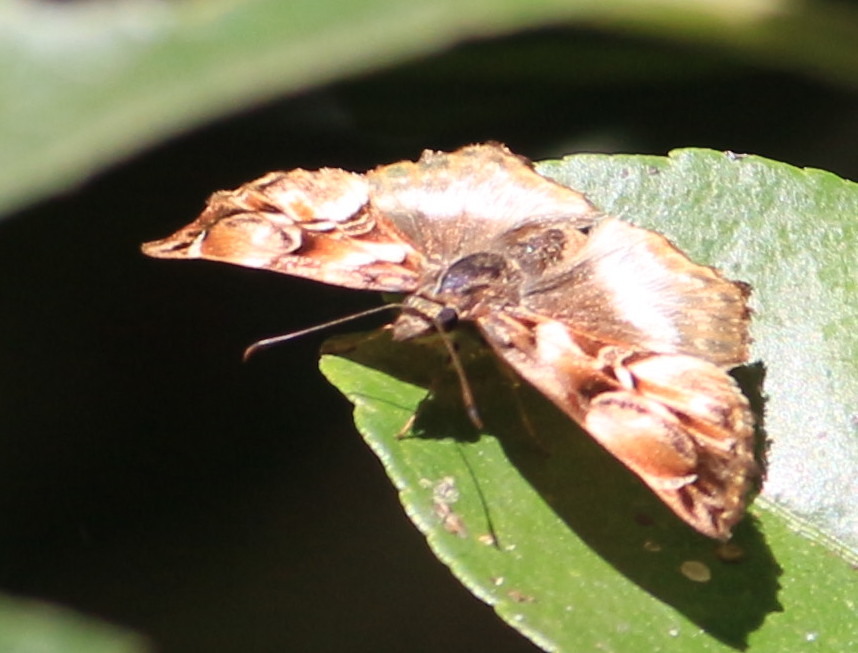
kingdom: Animalia
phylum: Arthropoda
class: Insecta
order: Lepidoptera
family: Hesperiidae
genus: Noctuana
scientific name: Noctuana lactifera
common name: Cryptic skipper
